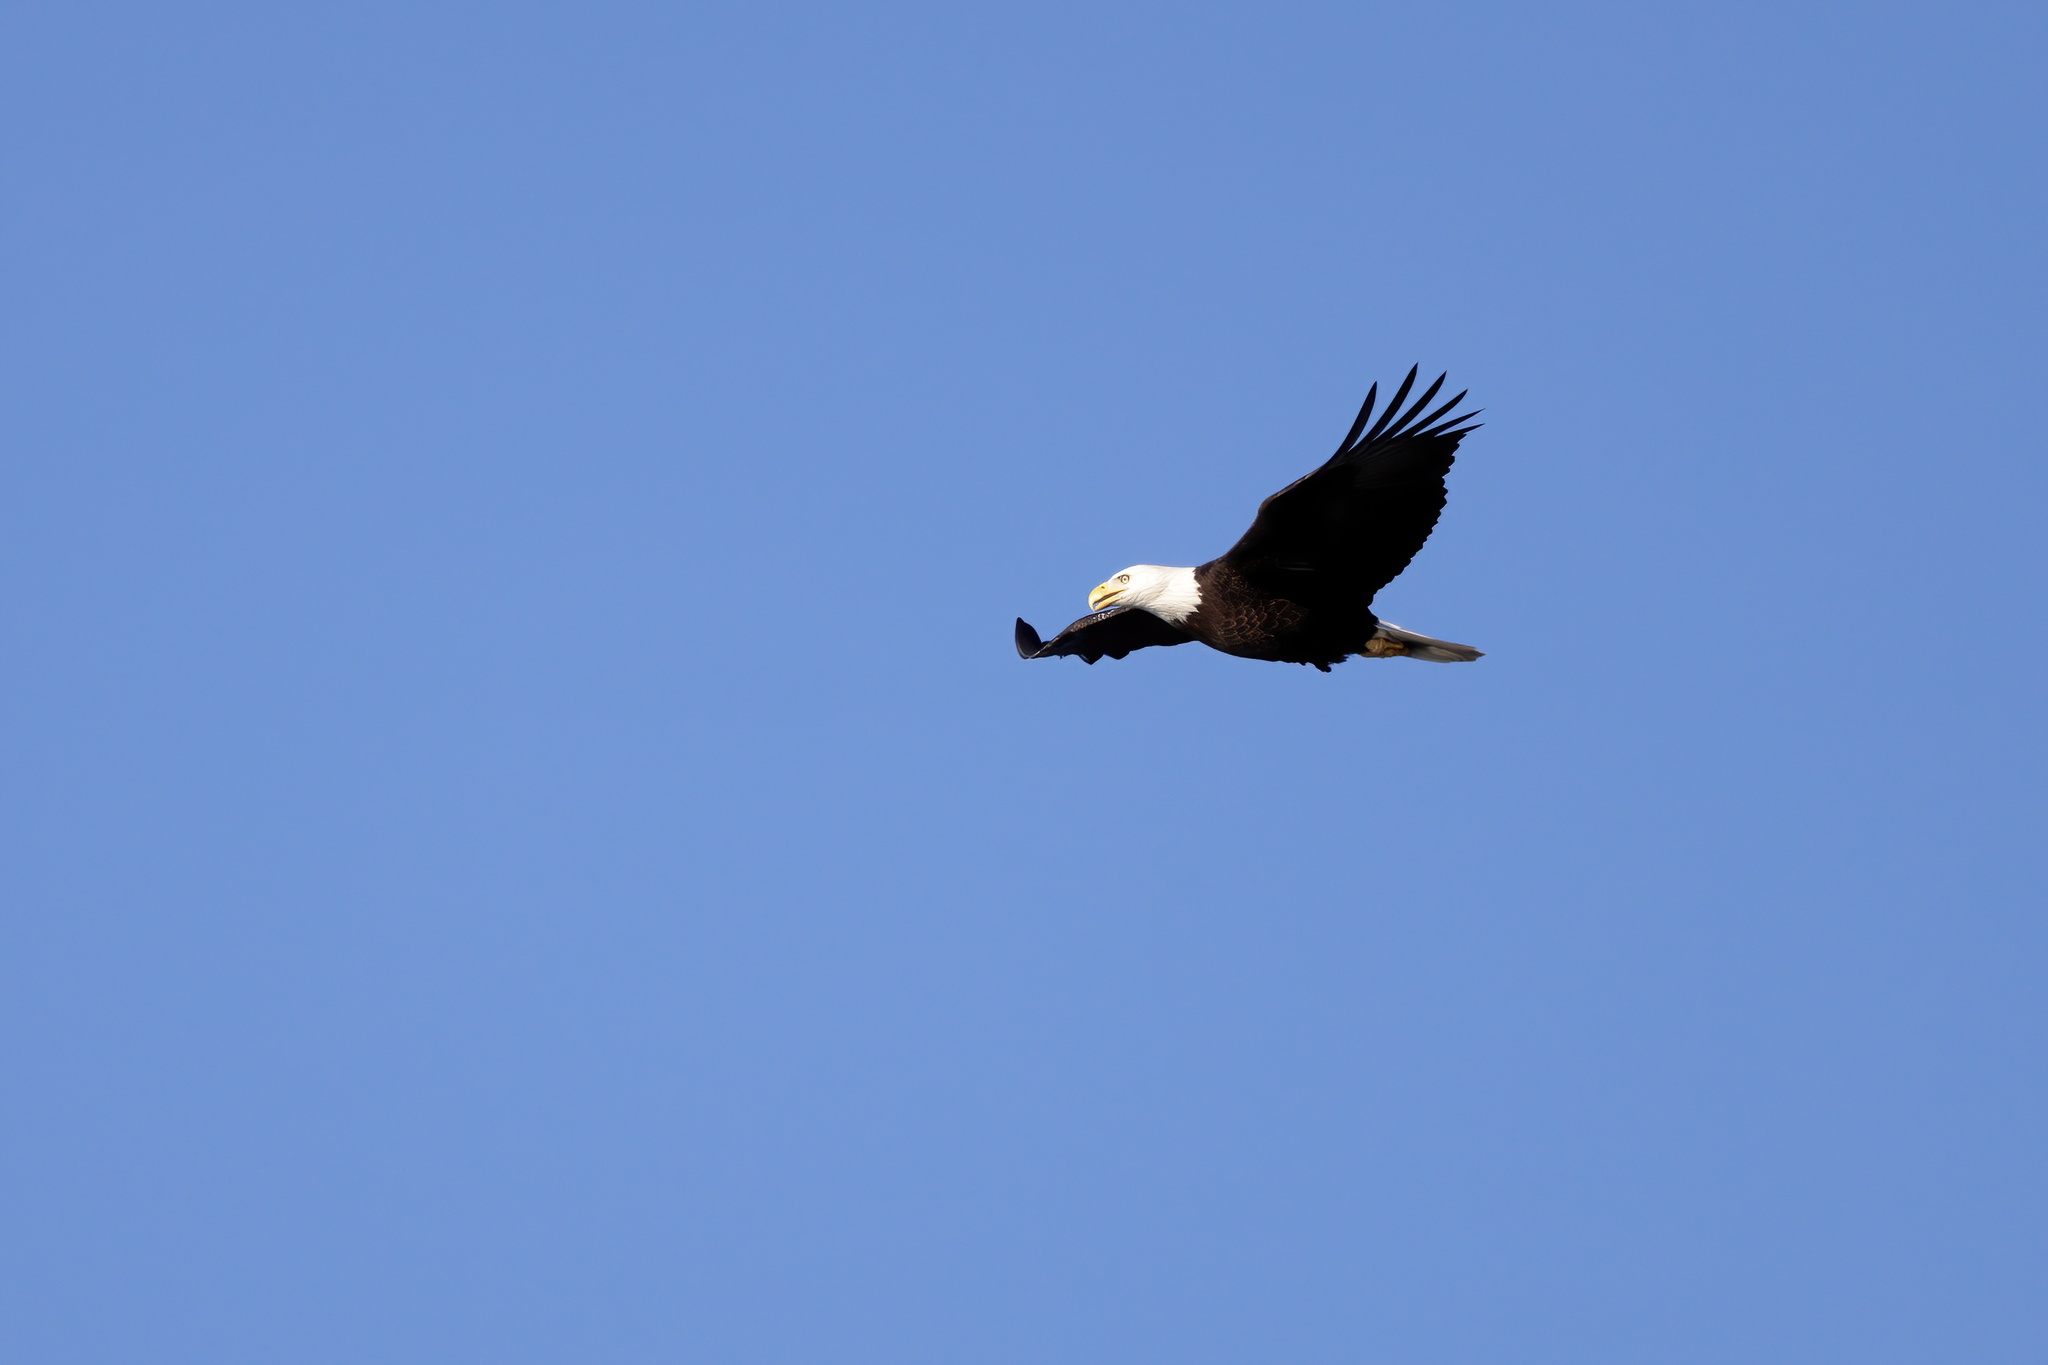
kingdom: Animalia
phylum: Chordata
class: Aves
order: Accipitriformes
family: Accipitridae
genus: Haliaeetus
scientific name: Haliaeetus leucocephalus
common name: Bald eagle
